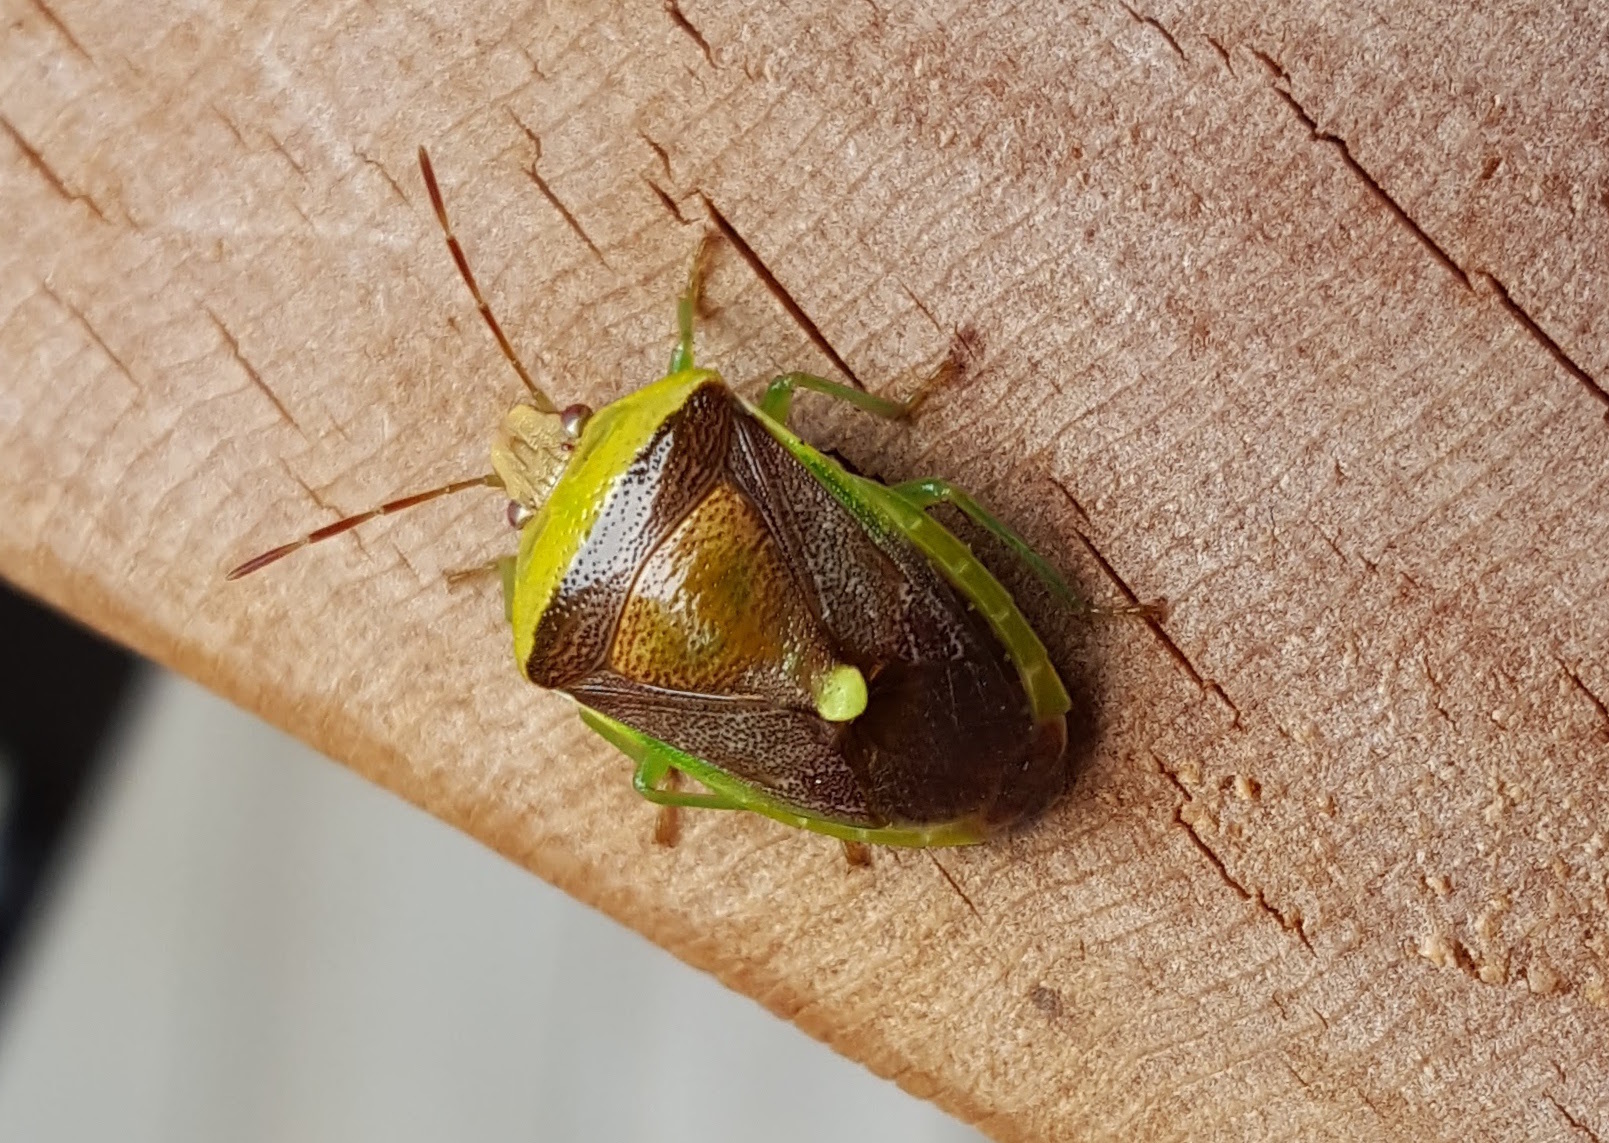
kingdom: Animalia
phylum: Arthropoda
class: Insecta
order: Hemiptera
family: Pentatomidae
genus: Banasa
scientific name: Banasa dimidiata
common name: Green burgundy stink bug
